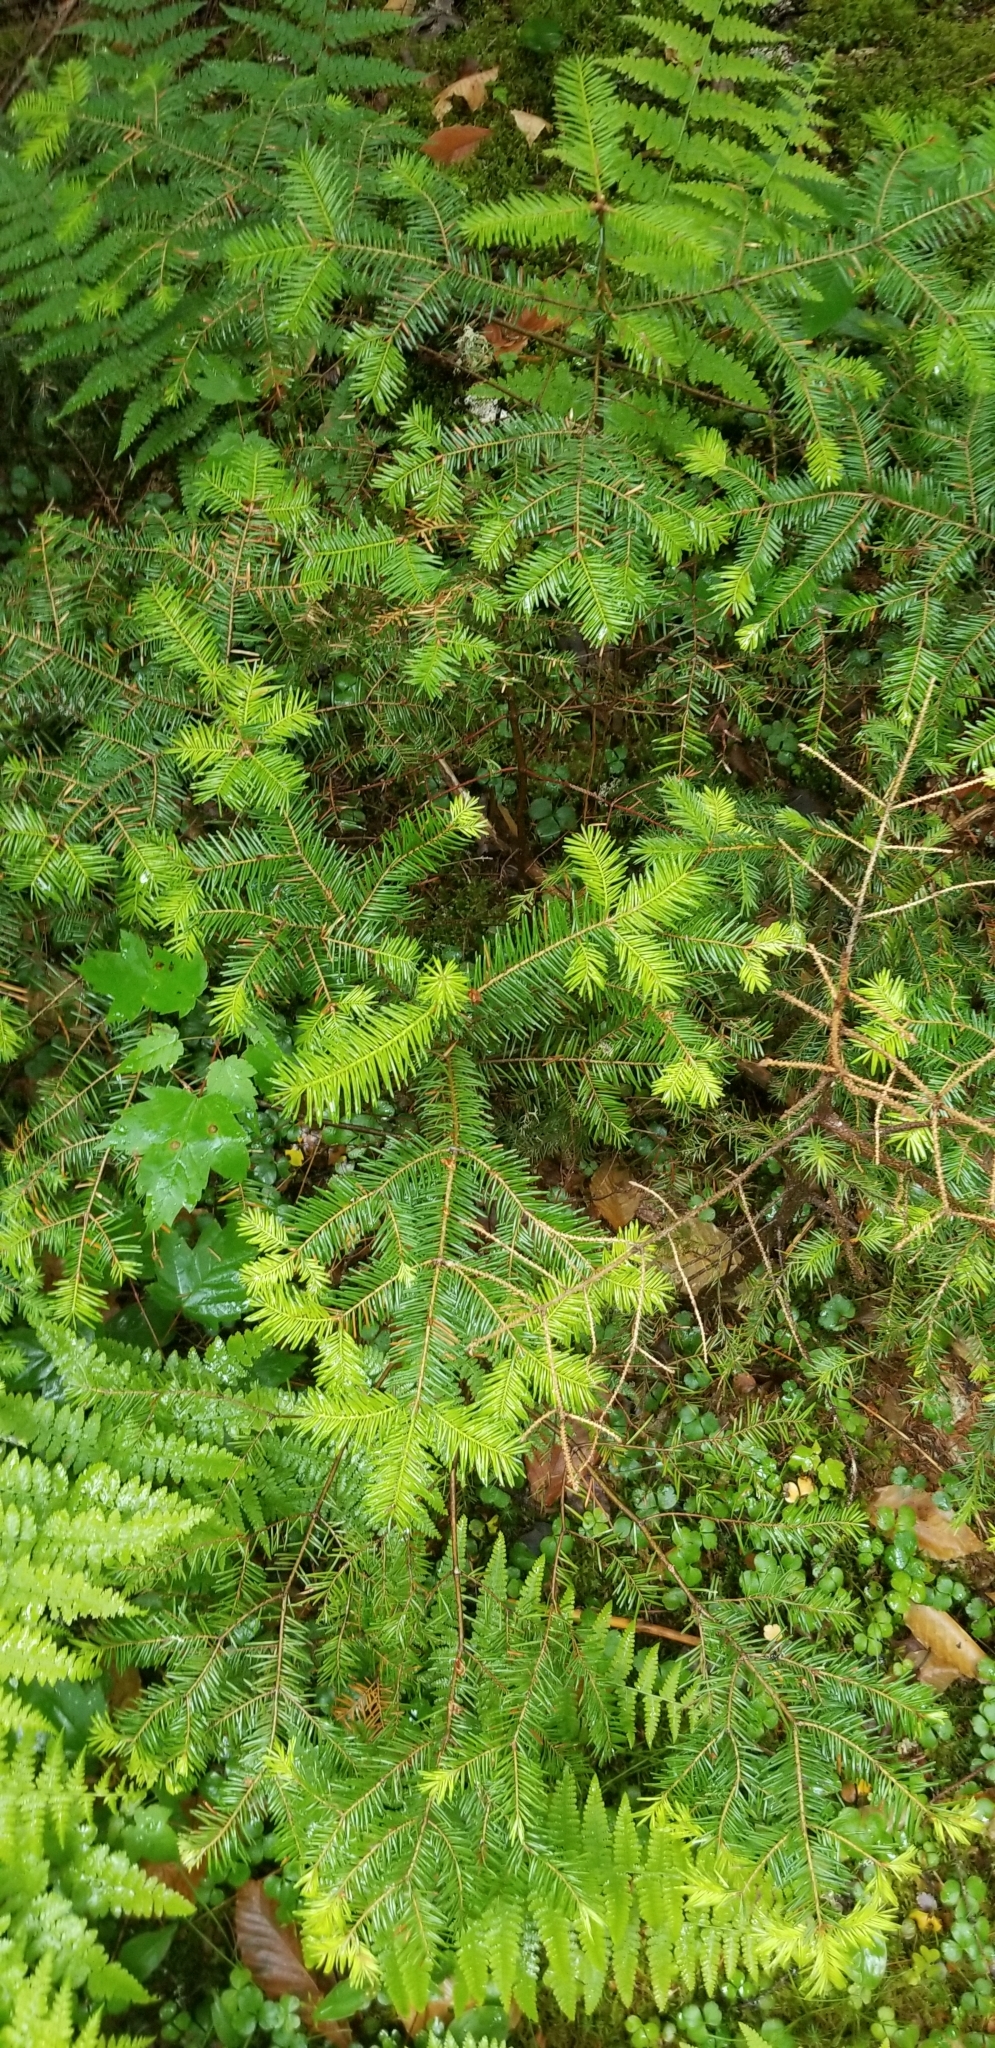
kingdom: Plantae
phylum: Tracheophyta
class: Pinopsida
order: Pinales
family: Pinaceae
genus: Abies
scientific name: Abies balsamea
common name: Balsam fir
